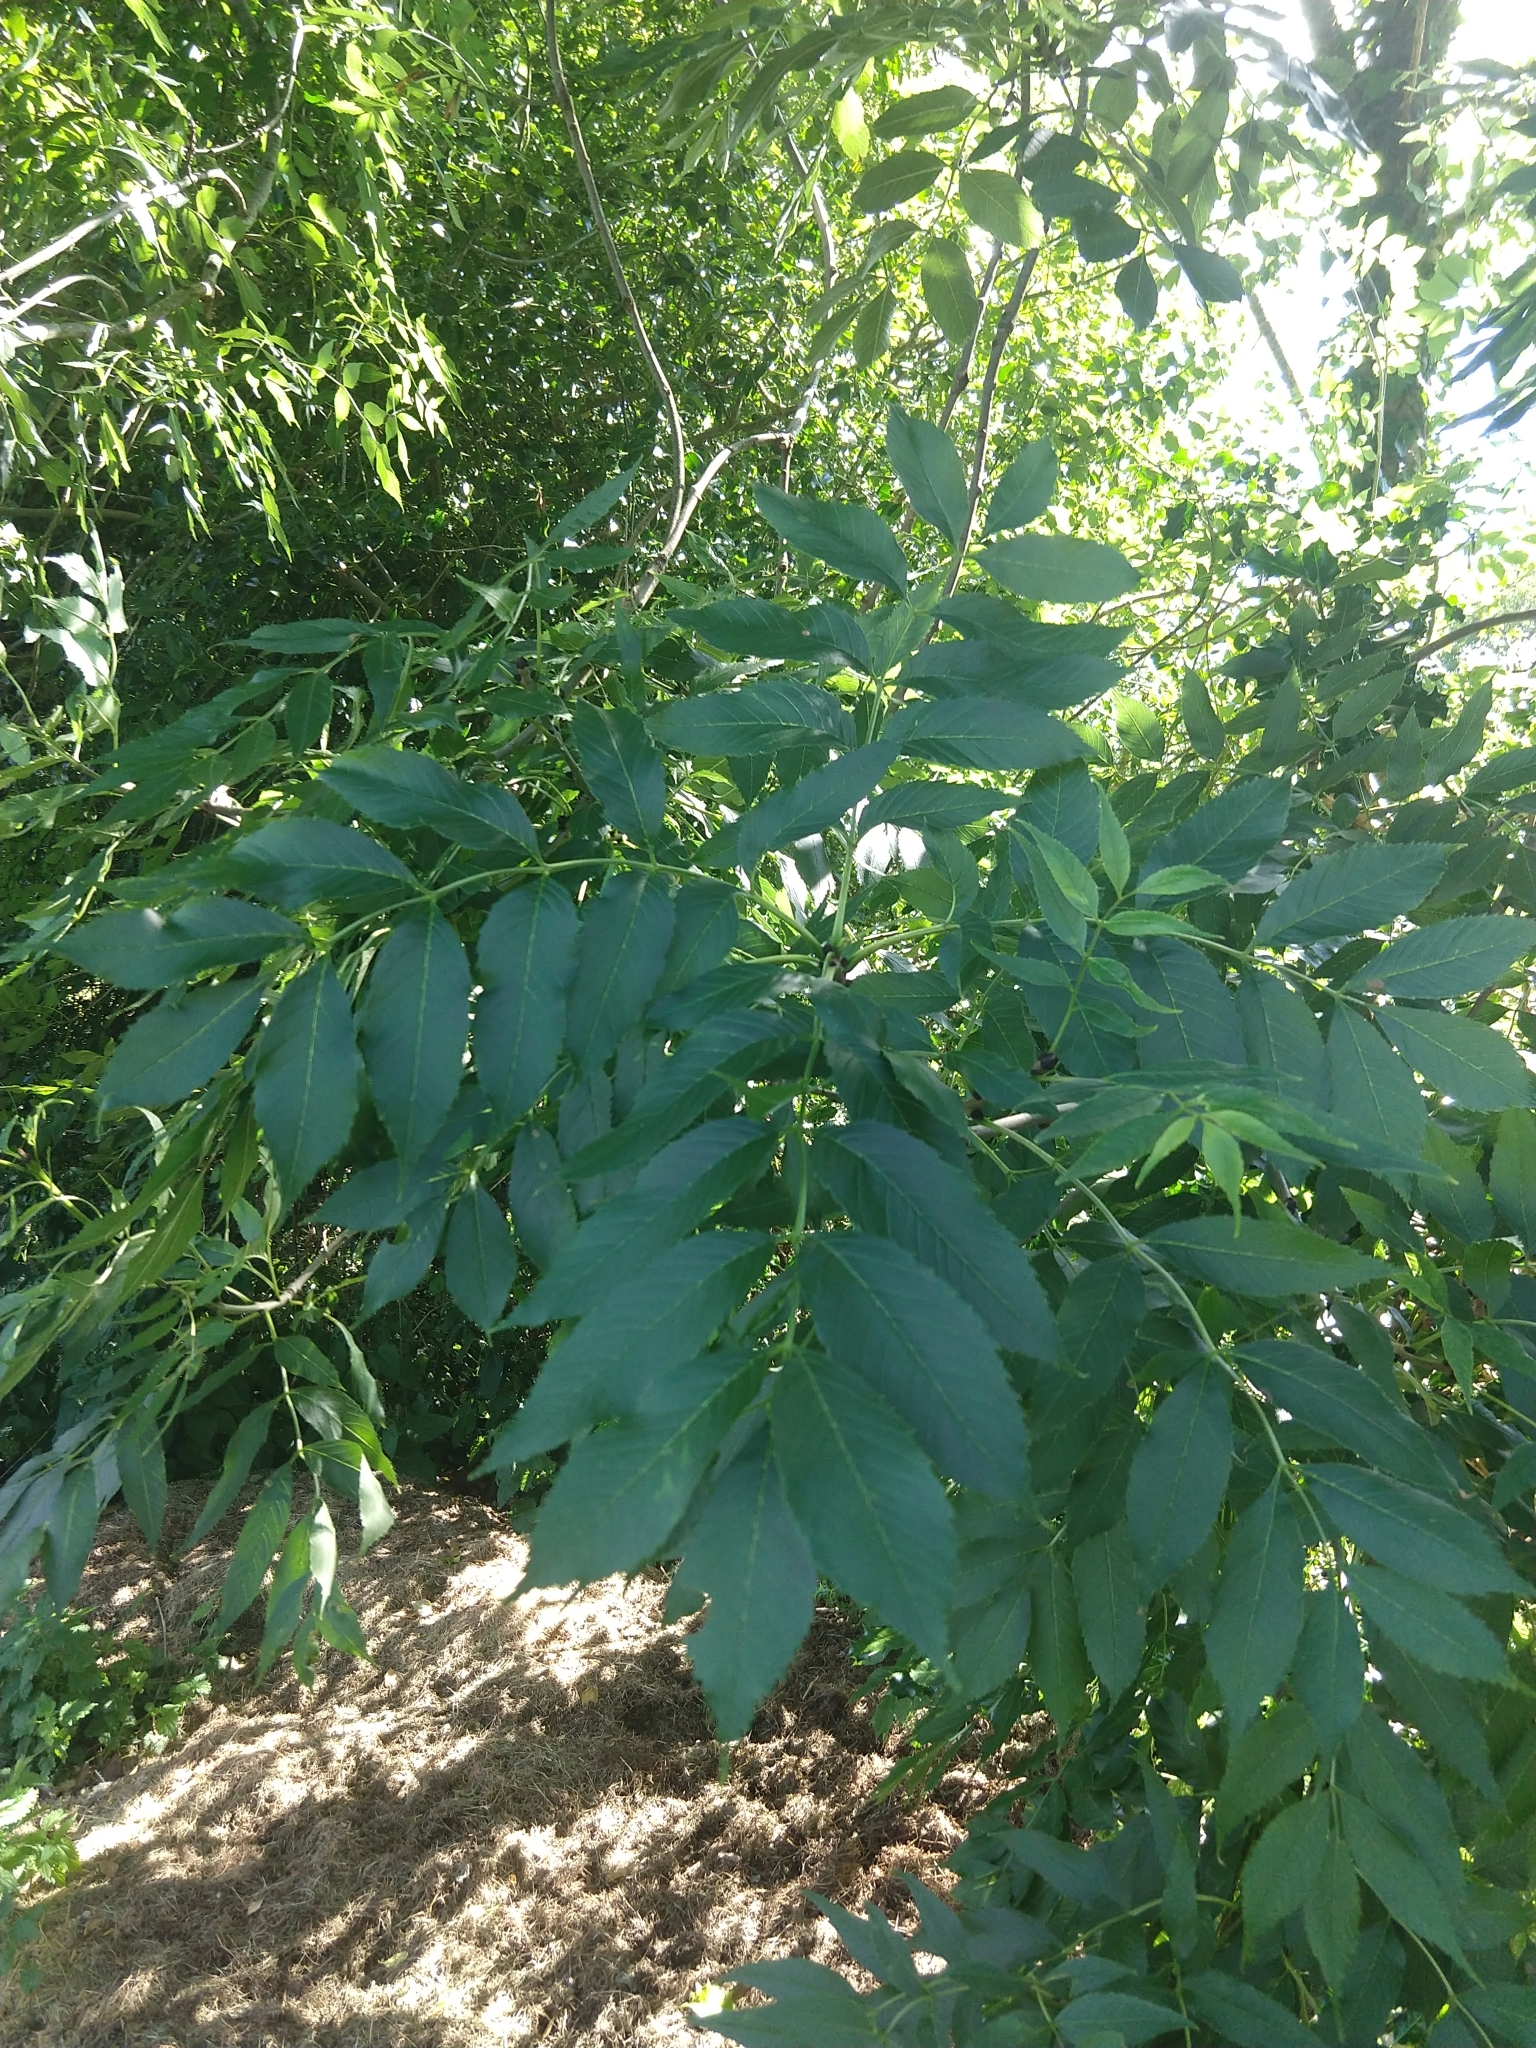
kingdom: Plantae
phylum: Tracheophyta
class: Magnoliopsida
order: Lamiales
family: Oleaceae
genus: Fraxinus
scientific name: Fraxinus excelsior
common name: European ash
